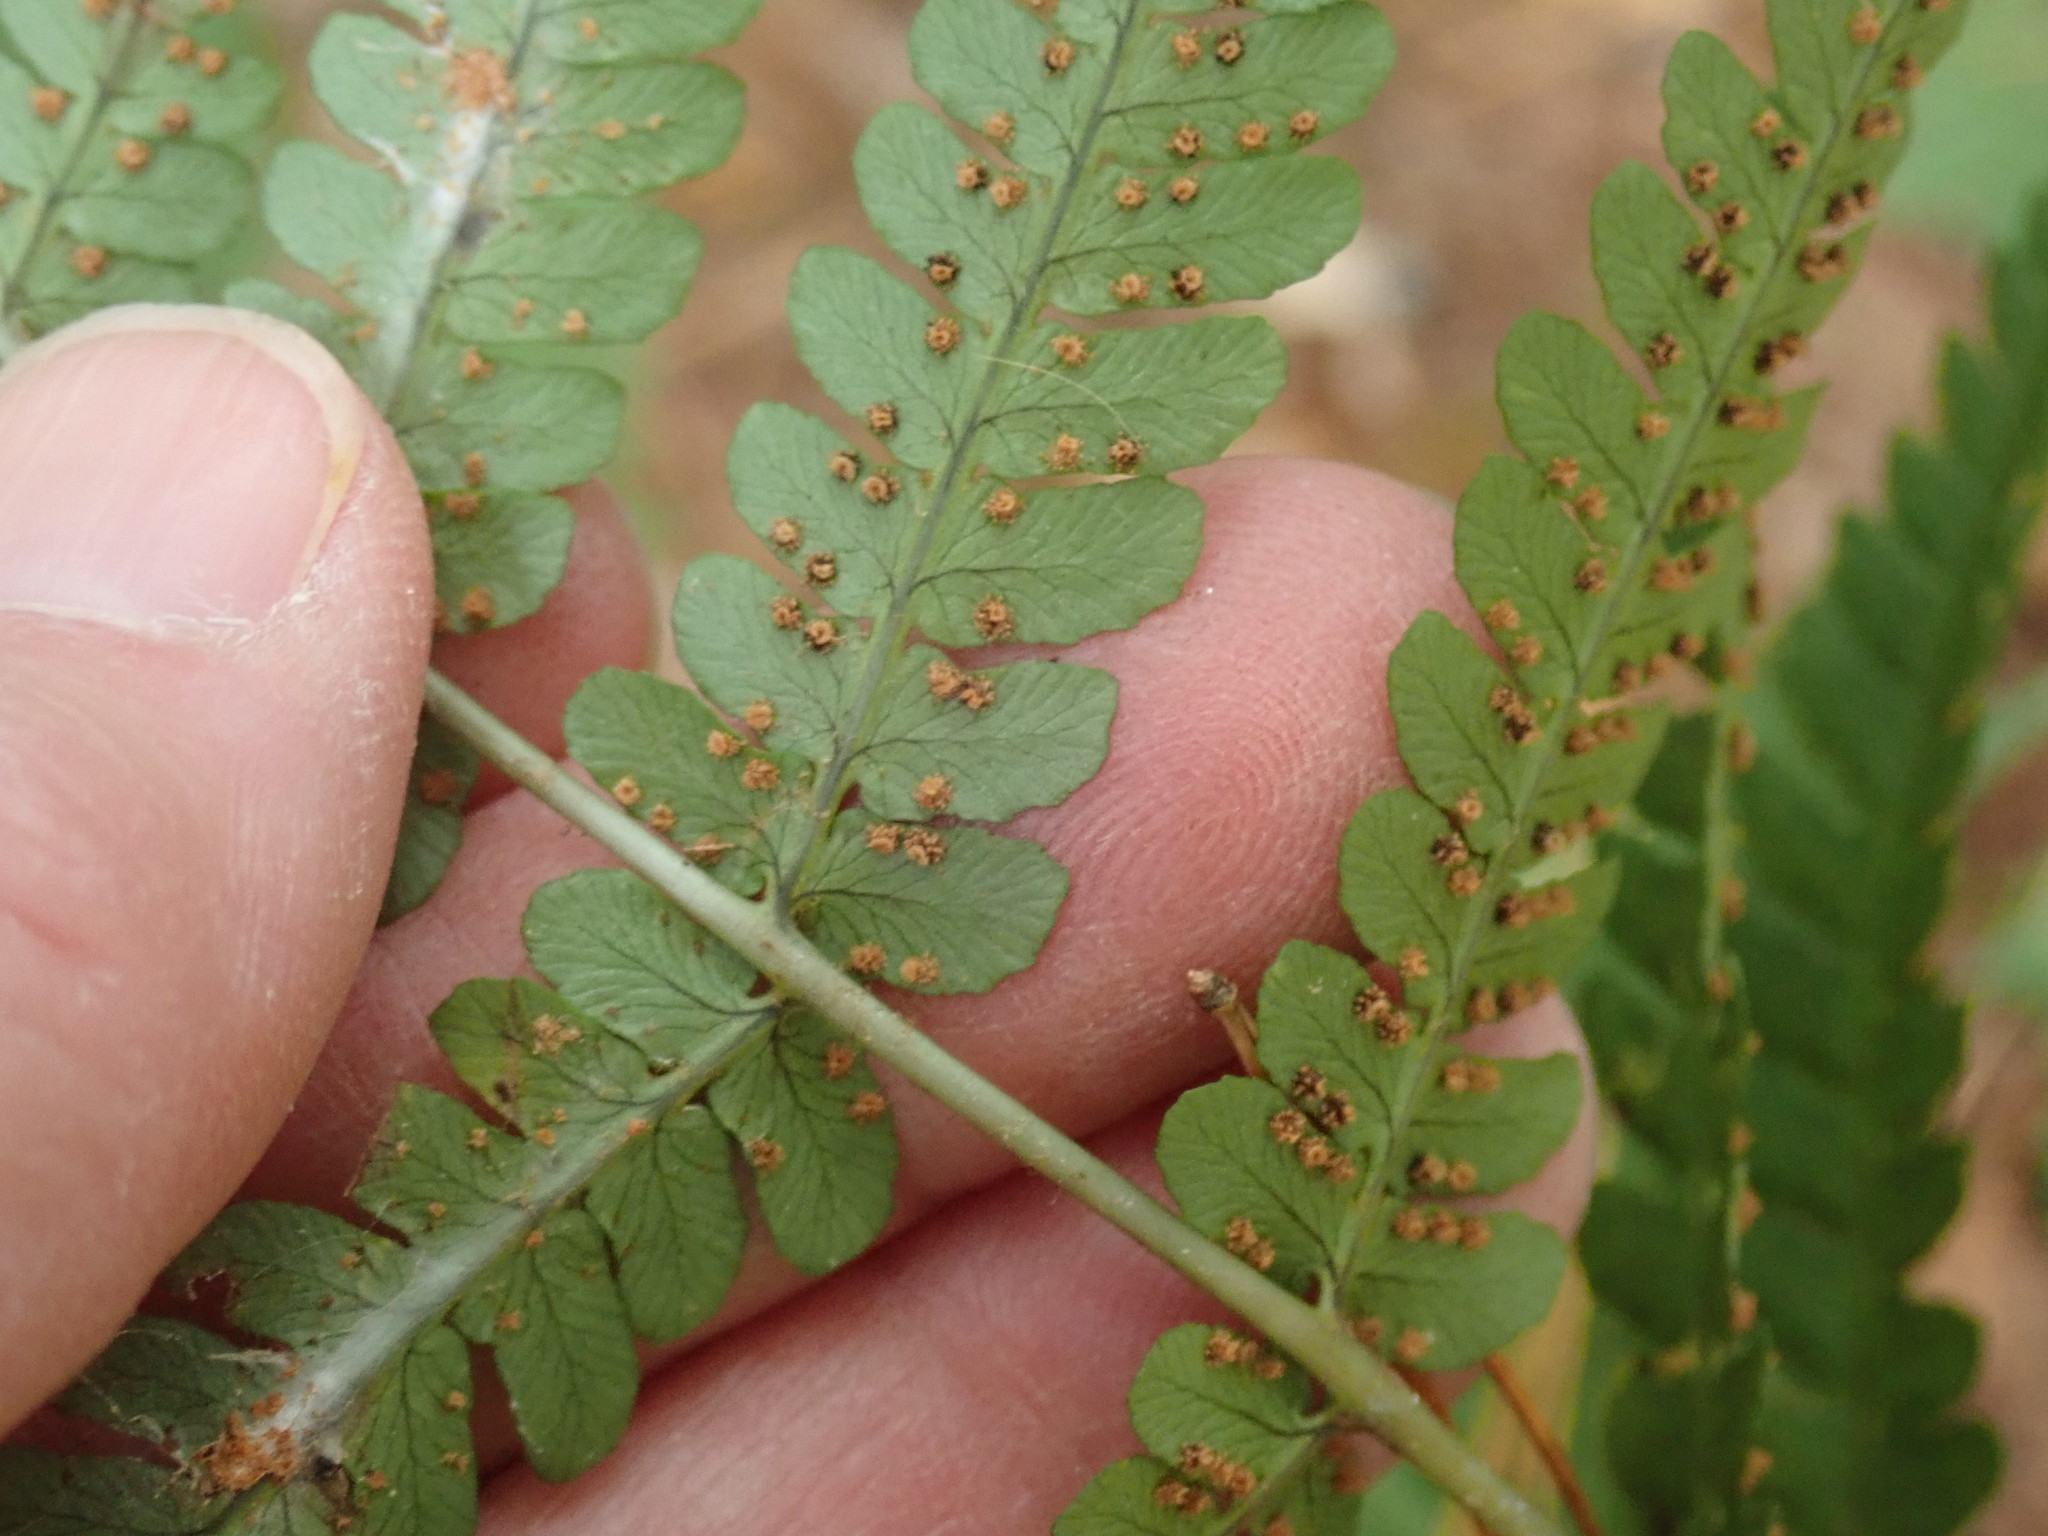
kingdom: Plantae
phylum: Tracheophyta
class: Polypodiopsida
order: Polypodiales
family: Dryopteridaceae
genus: Dryopteris
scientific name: Dryopteris marginalis
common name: Marginal wood fern
